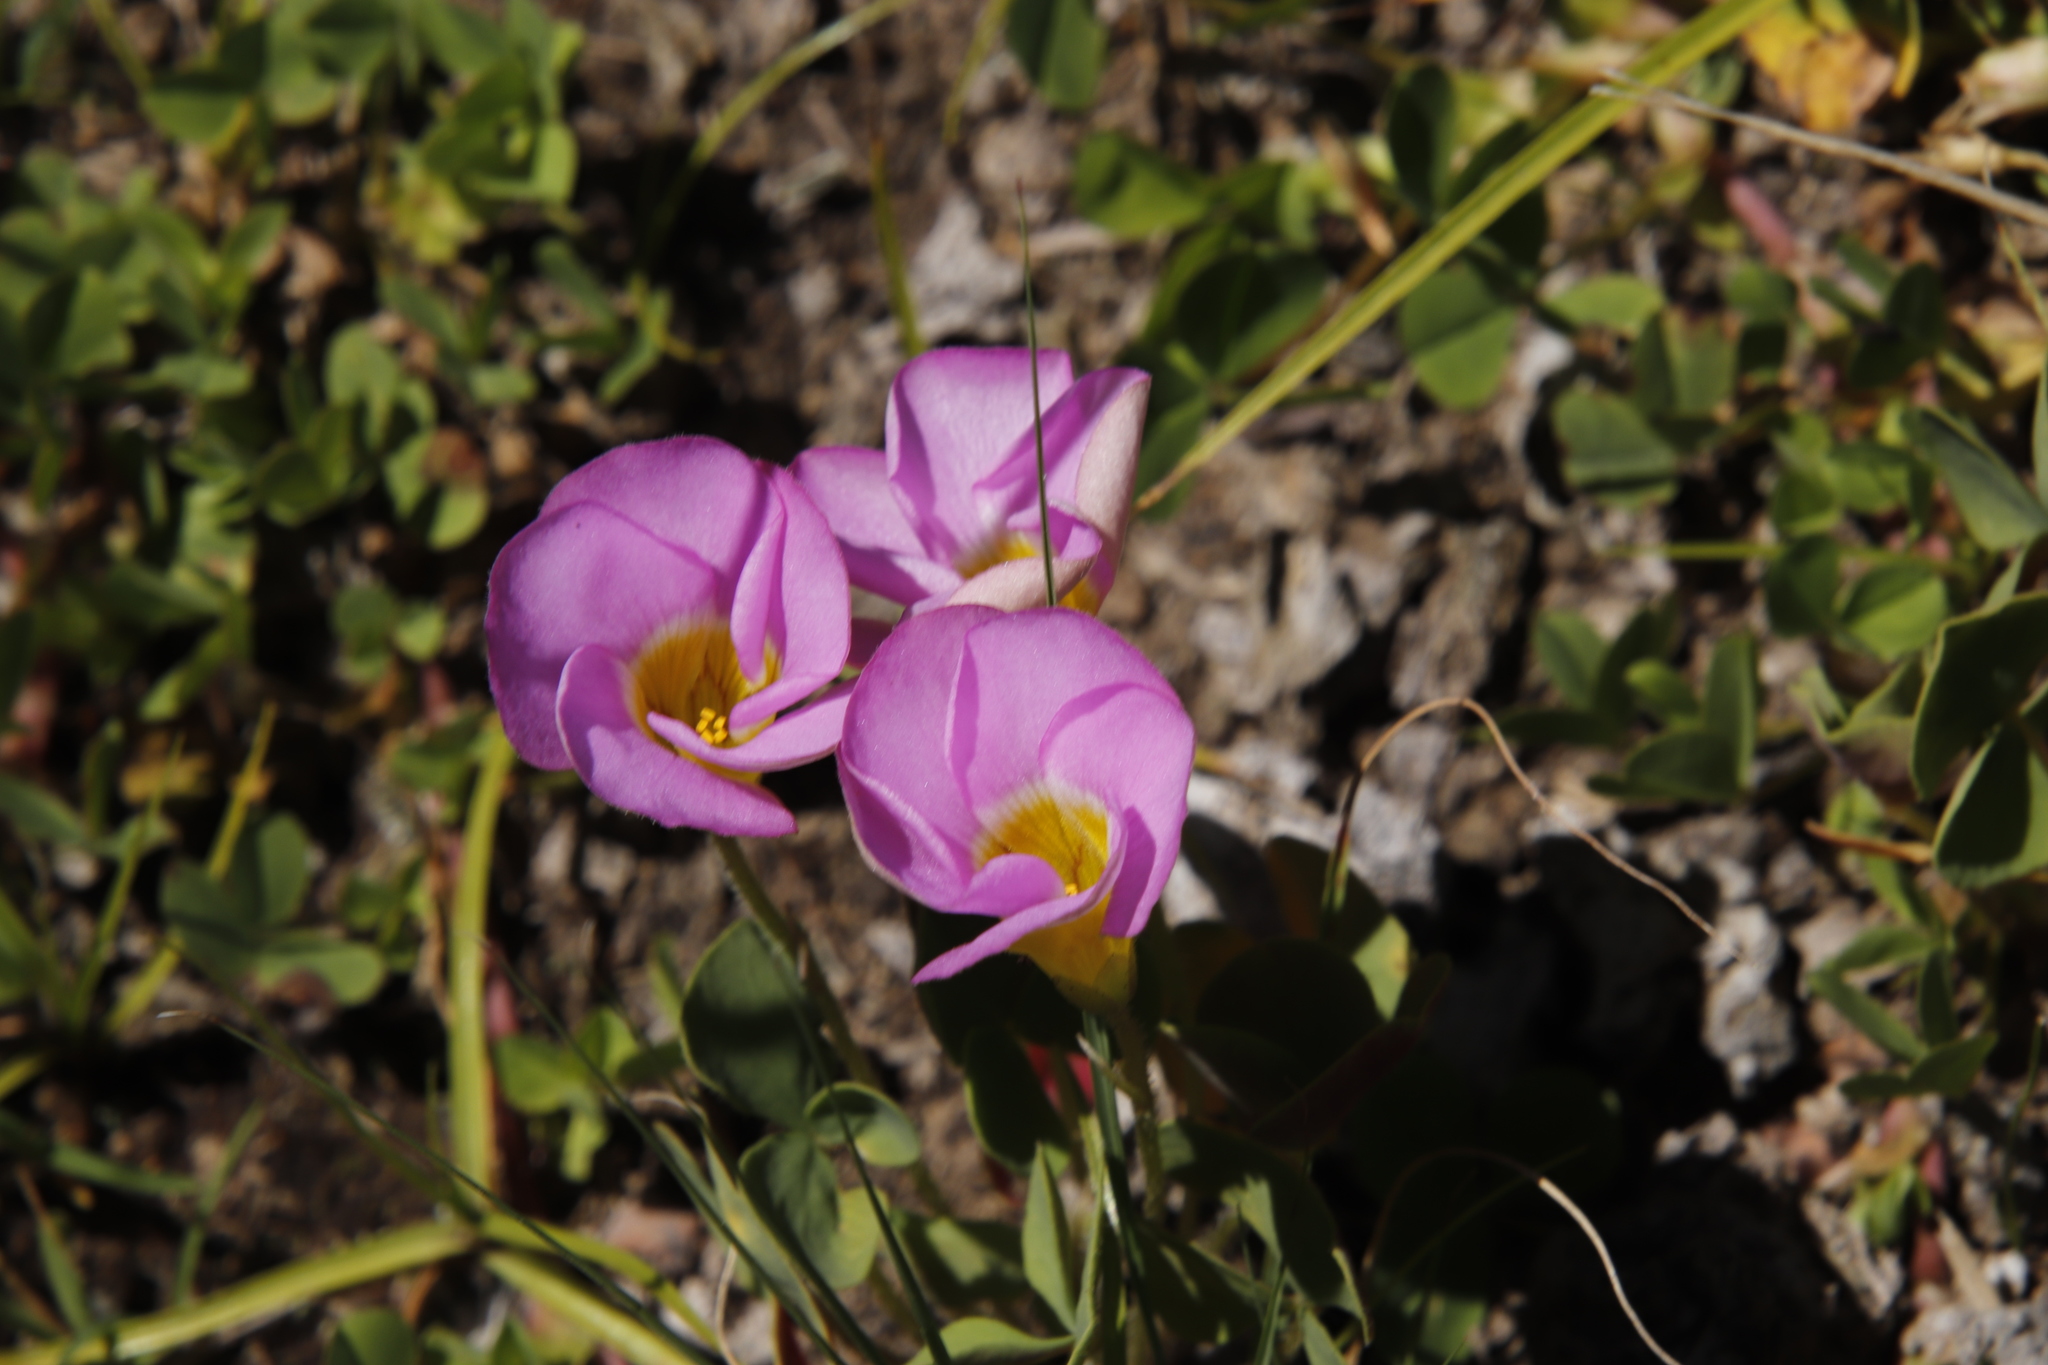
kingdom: Plantae
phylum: Tracheophyta
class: Magnoliopsida
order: Oxalidales
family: Oxalidaceae
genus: Oxalis
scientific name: Oxalis obliquifolia
